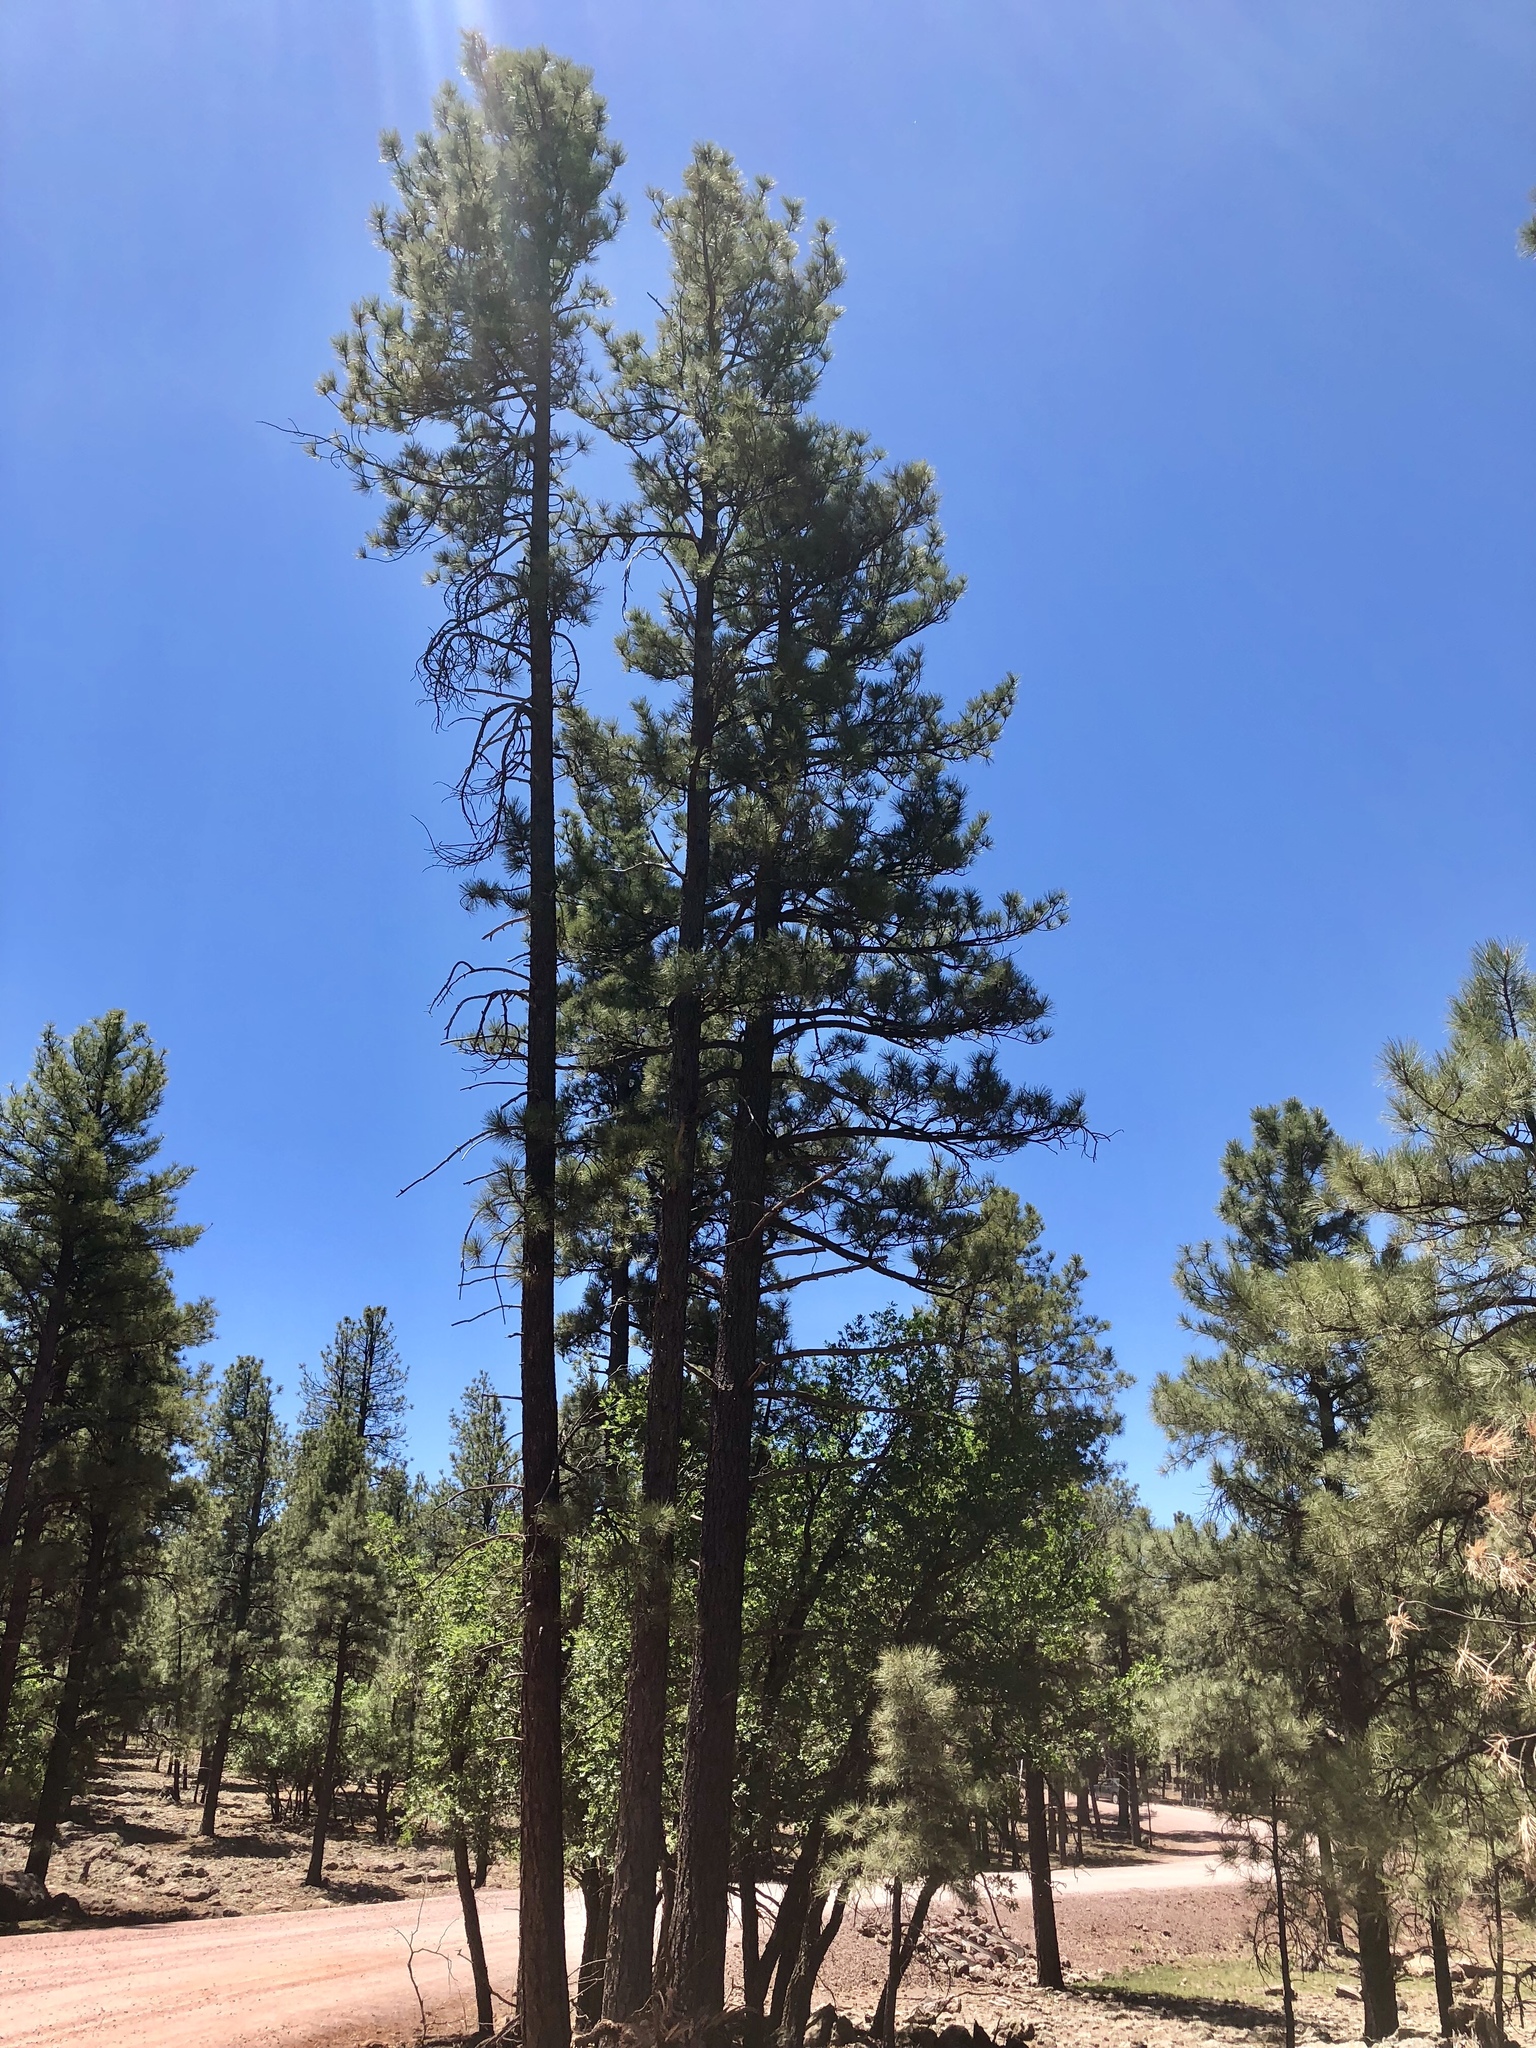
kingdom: Plantae
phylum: Tracheophyta
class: Pinopsida
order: Pinales
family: Pinaceae
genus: Pinus
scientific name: Pinus ponderosa
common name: Western yellow-pine
